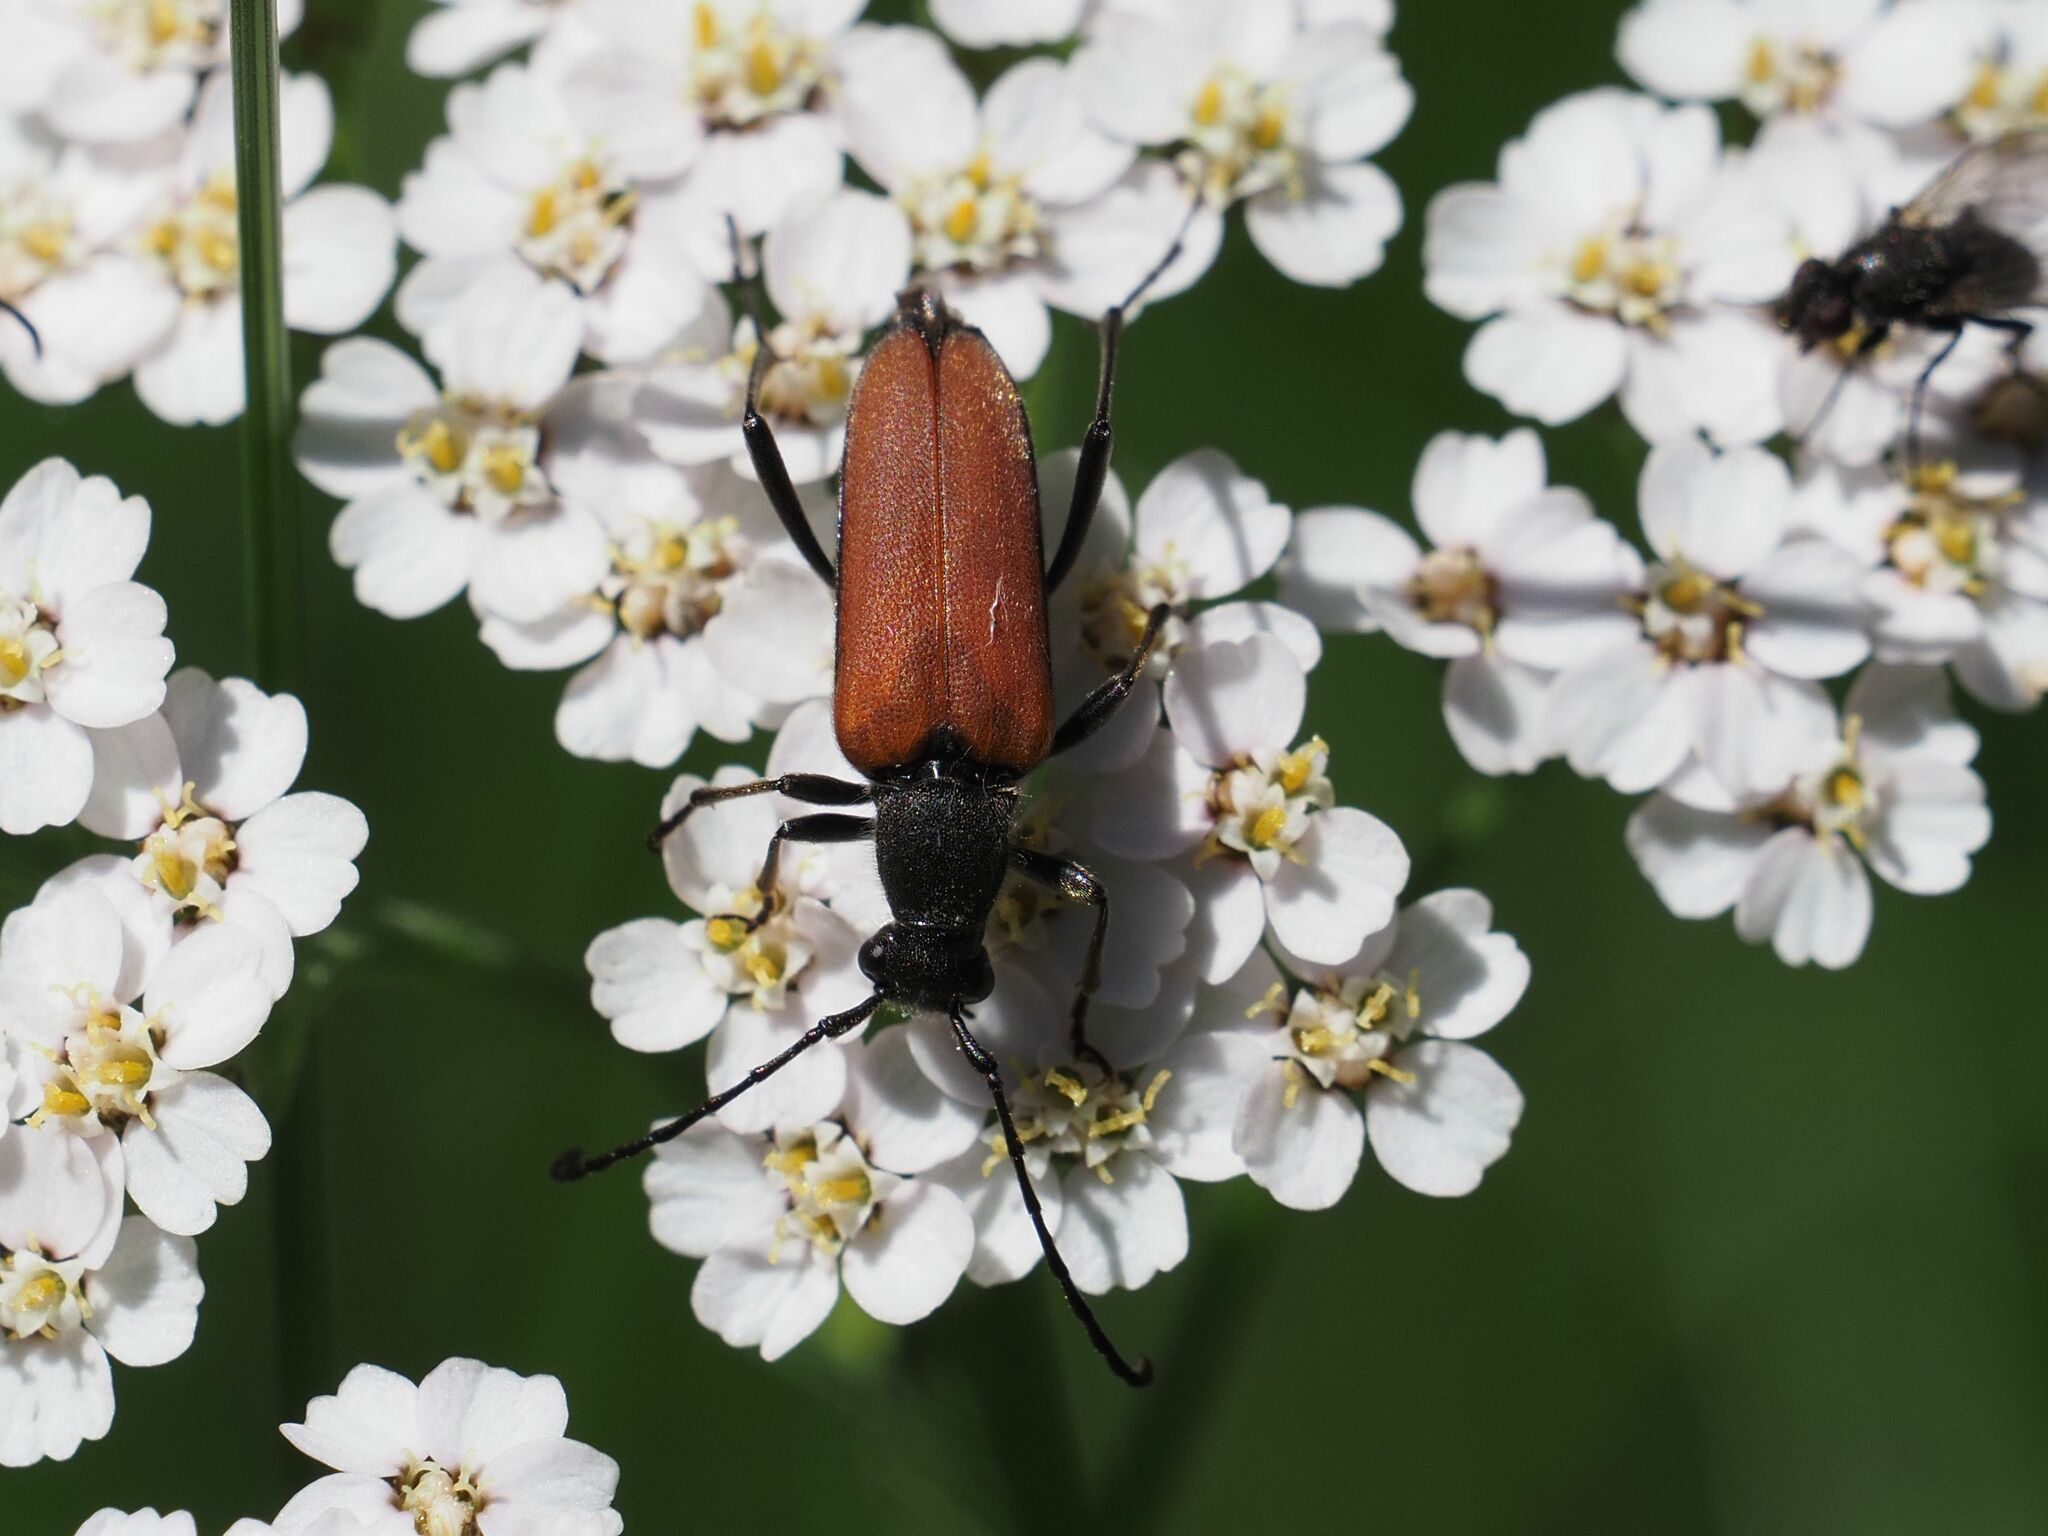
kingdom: Animalia
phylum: Arthropoda
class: Insecta
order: Coleoptera
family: Cerambycidae
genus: Anastrangalia
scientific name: Anastrangalia sanguinolenta
